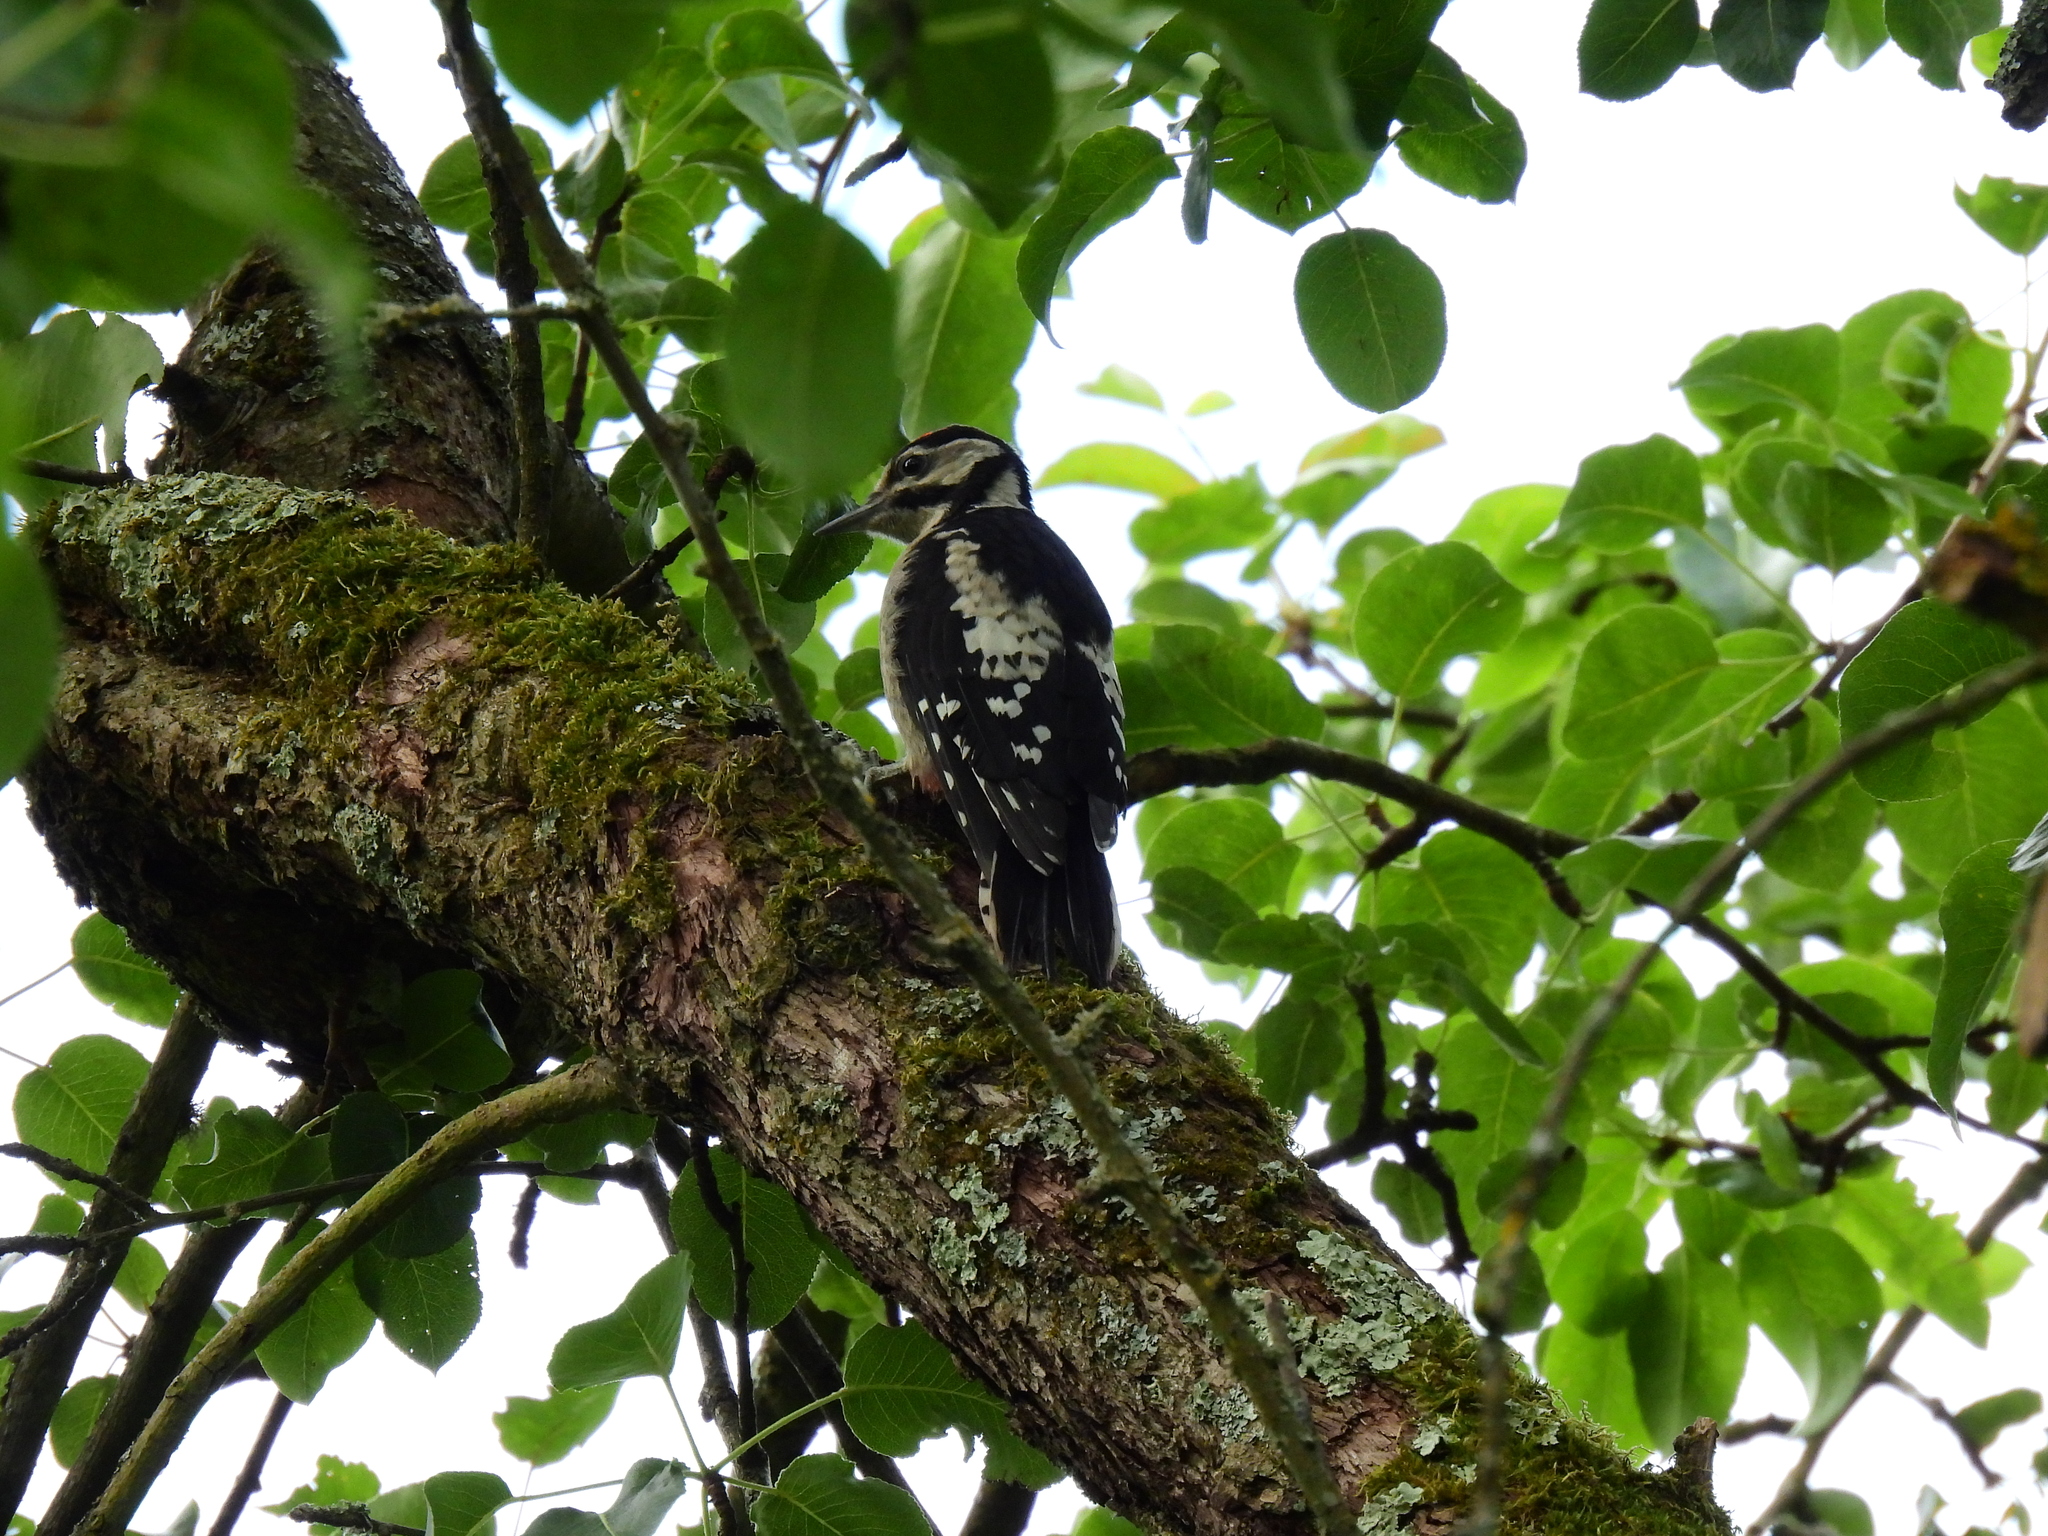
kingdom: Animalia
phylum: Chordata
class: Aves
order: Piciformes
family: Picidae
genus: Dendrocopos
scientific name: Dendrocopos major
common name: Great spotted woodpecker
